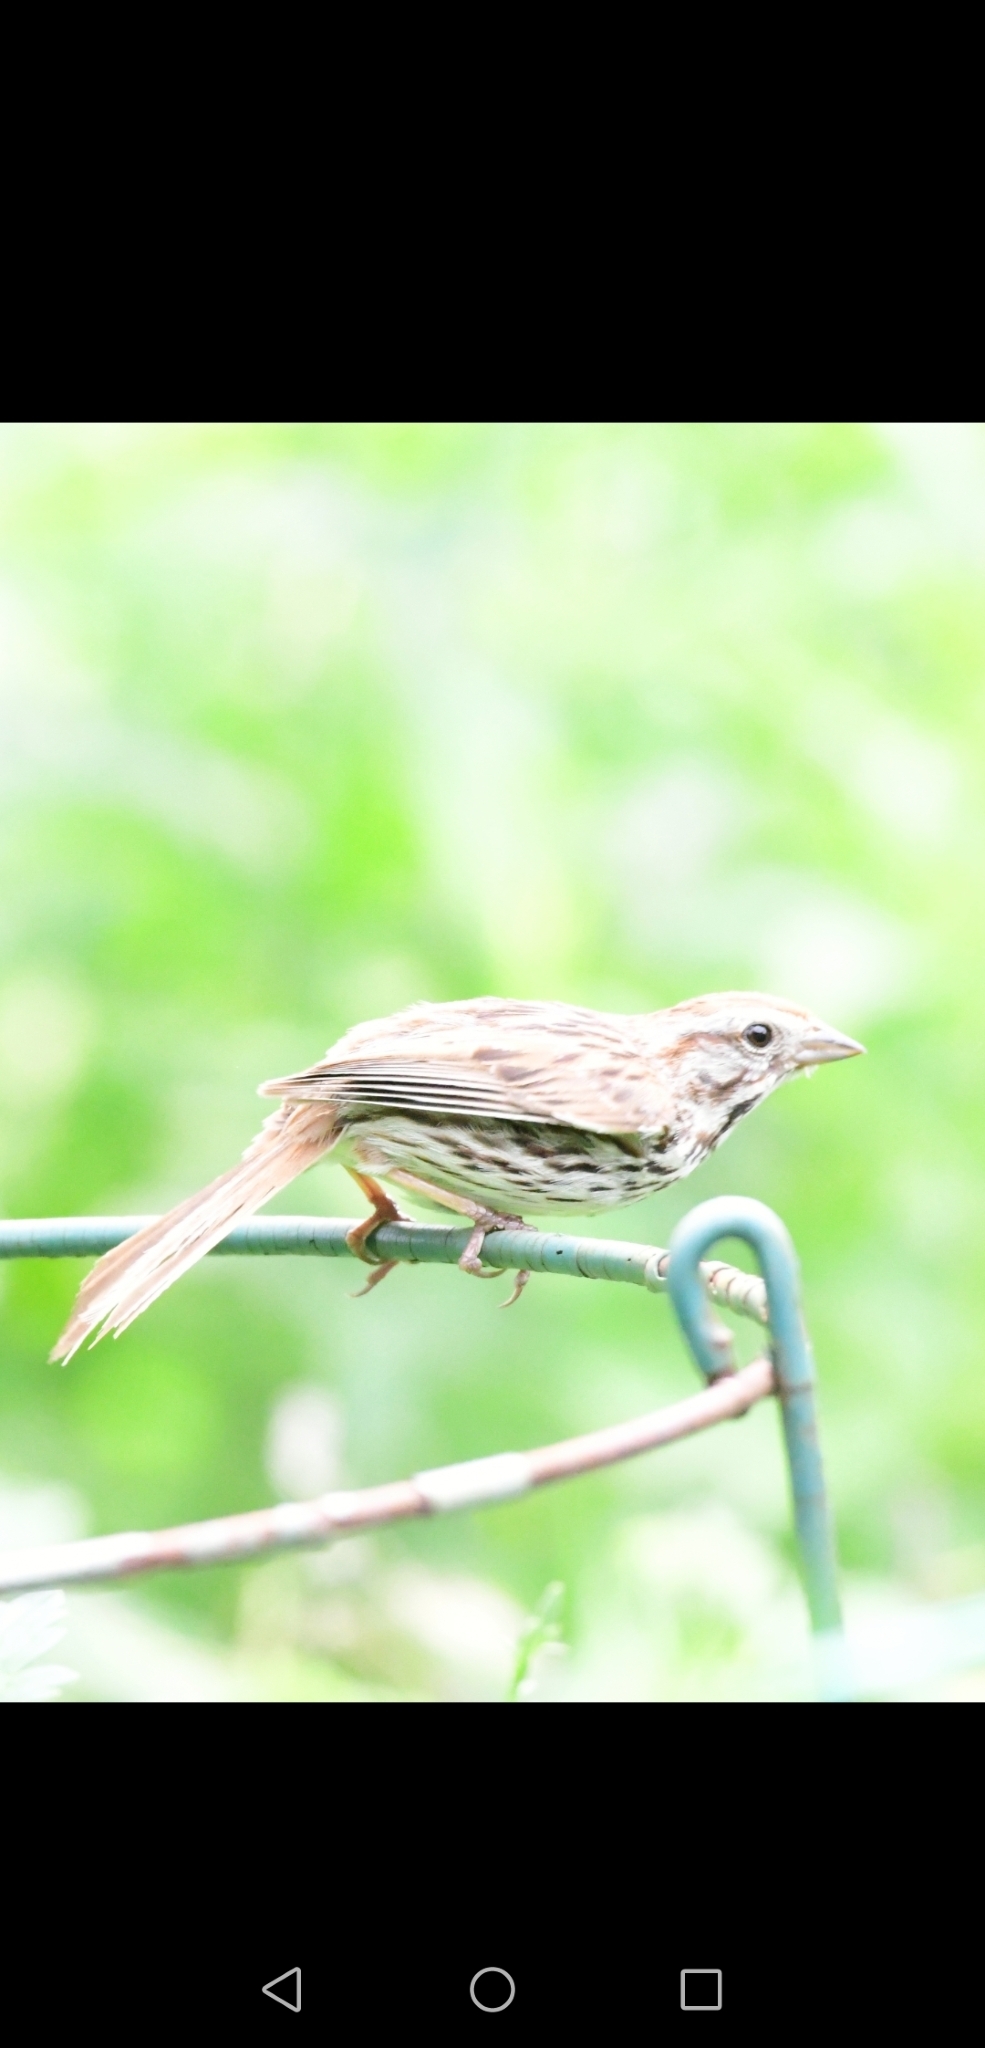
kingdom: Animalia
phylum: Chordata
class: Aves
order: Passeriformes
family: Passerellidae
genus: Melospiza
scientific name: Melospiza melodia
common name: Song sparrow
